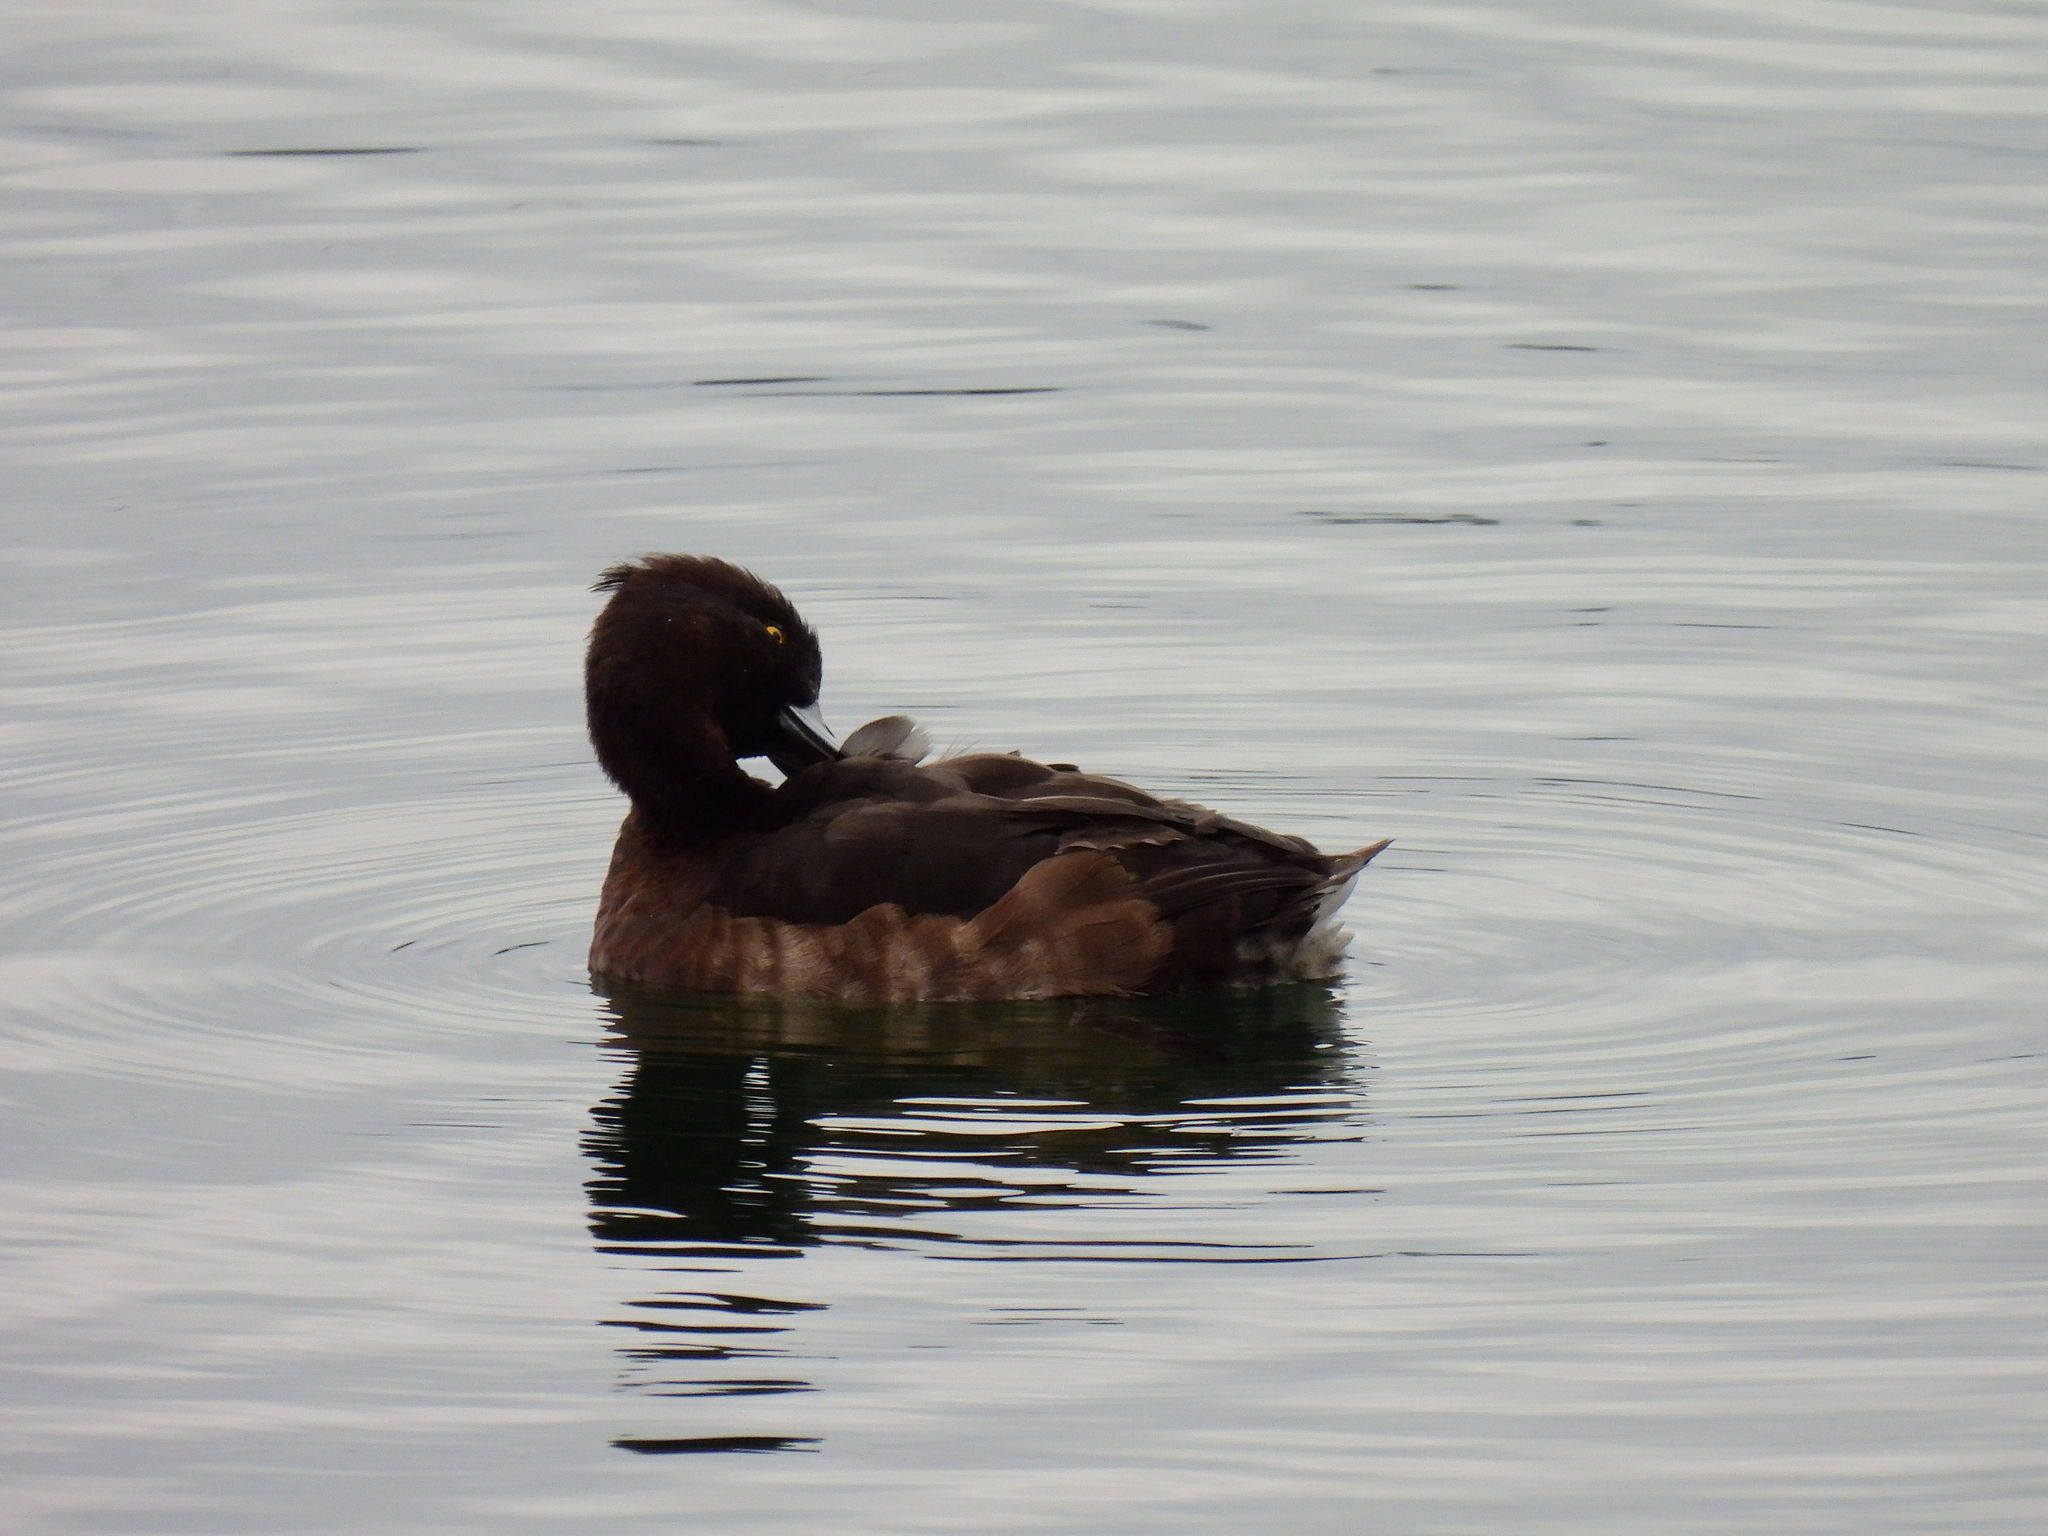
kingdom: Animalia
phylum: Chordata
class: Aves
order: Anseriformes
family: Anatidae
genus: Aythya
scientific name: Aythya fuligula
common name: Tufted duck
